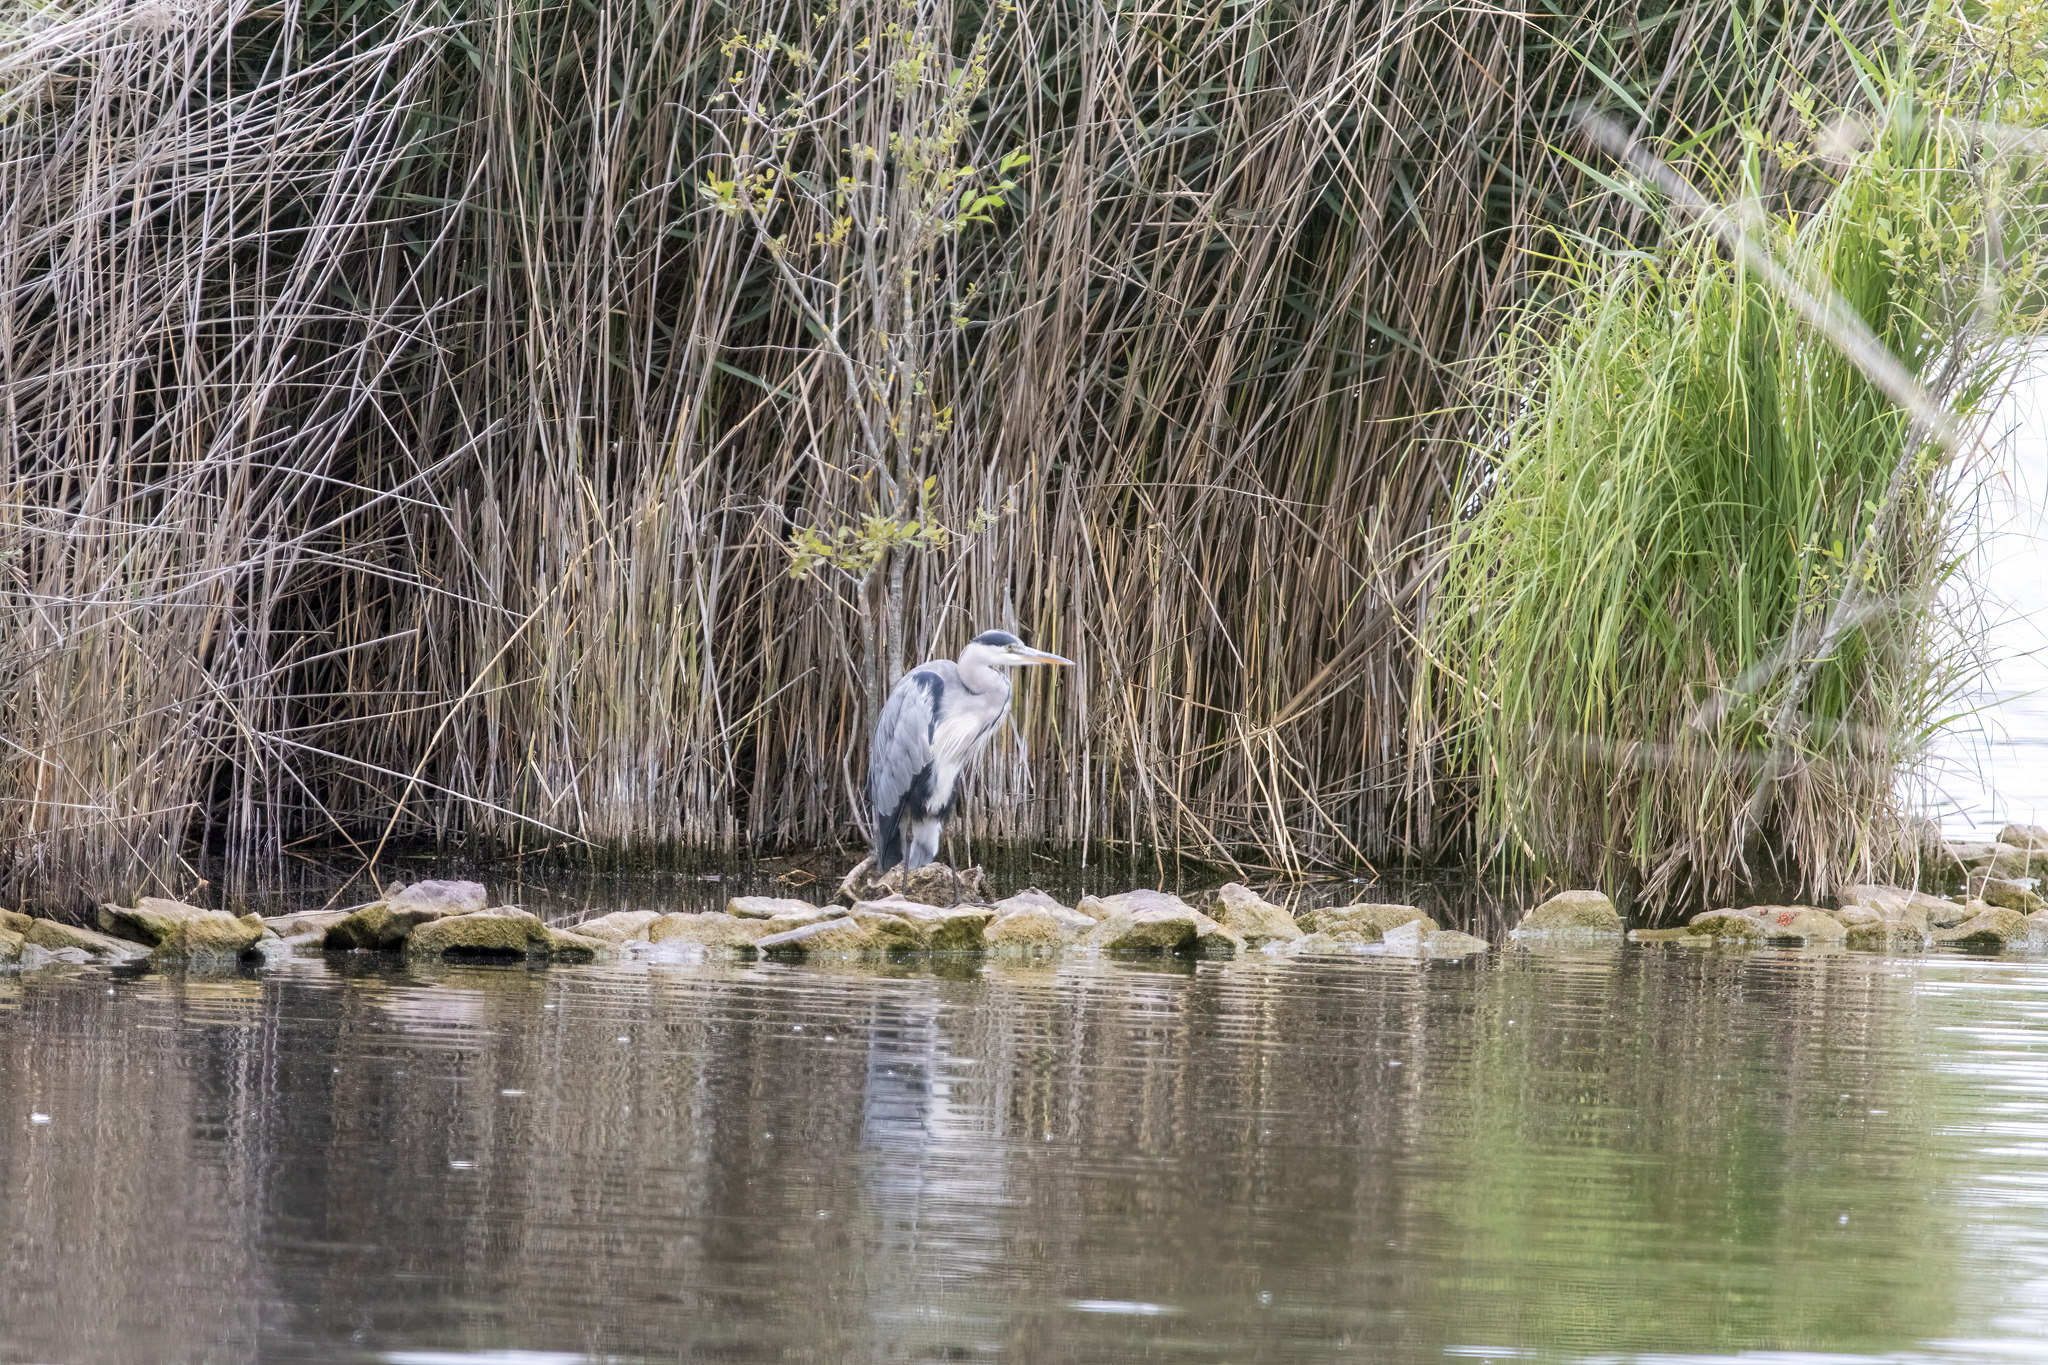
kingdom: Animalia
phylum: Chordata
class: Aves
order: Pelecaniformes
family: Ardeidae
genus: Ardea
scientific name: Ardea cinerea
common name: Grey heron
